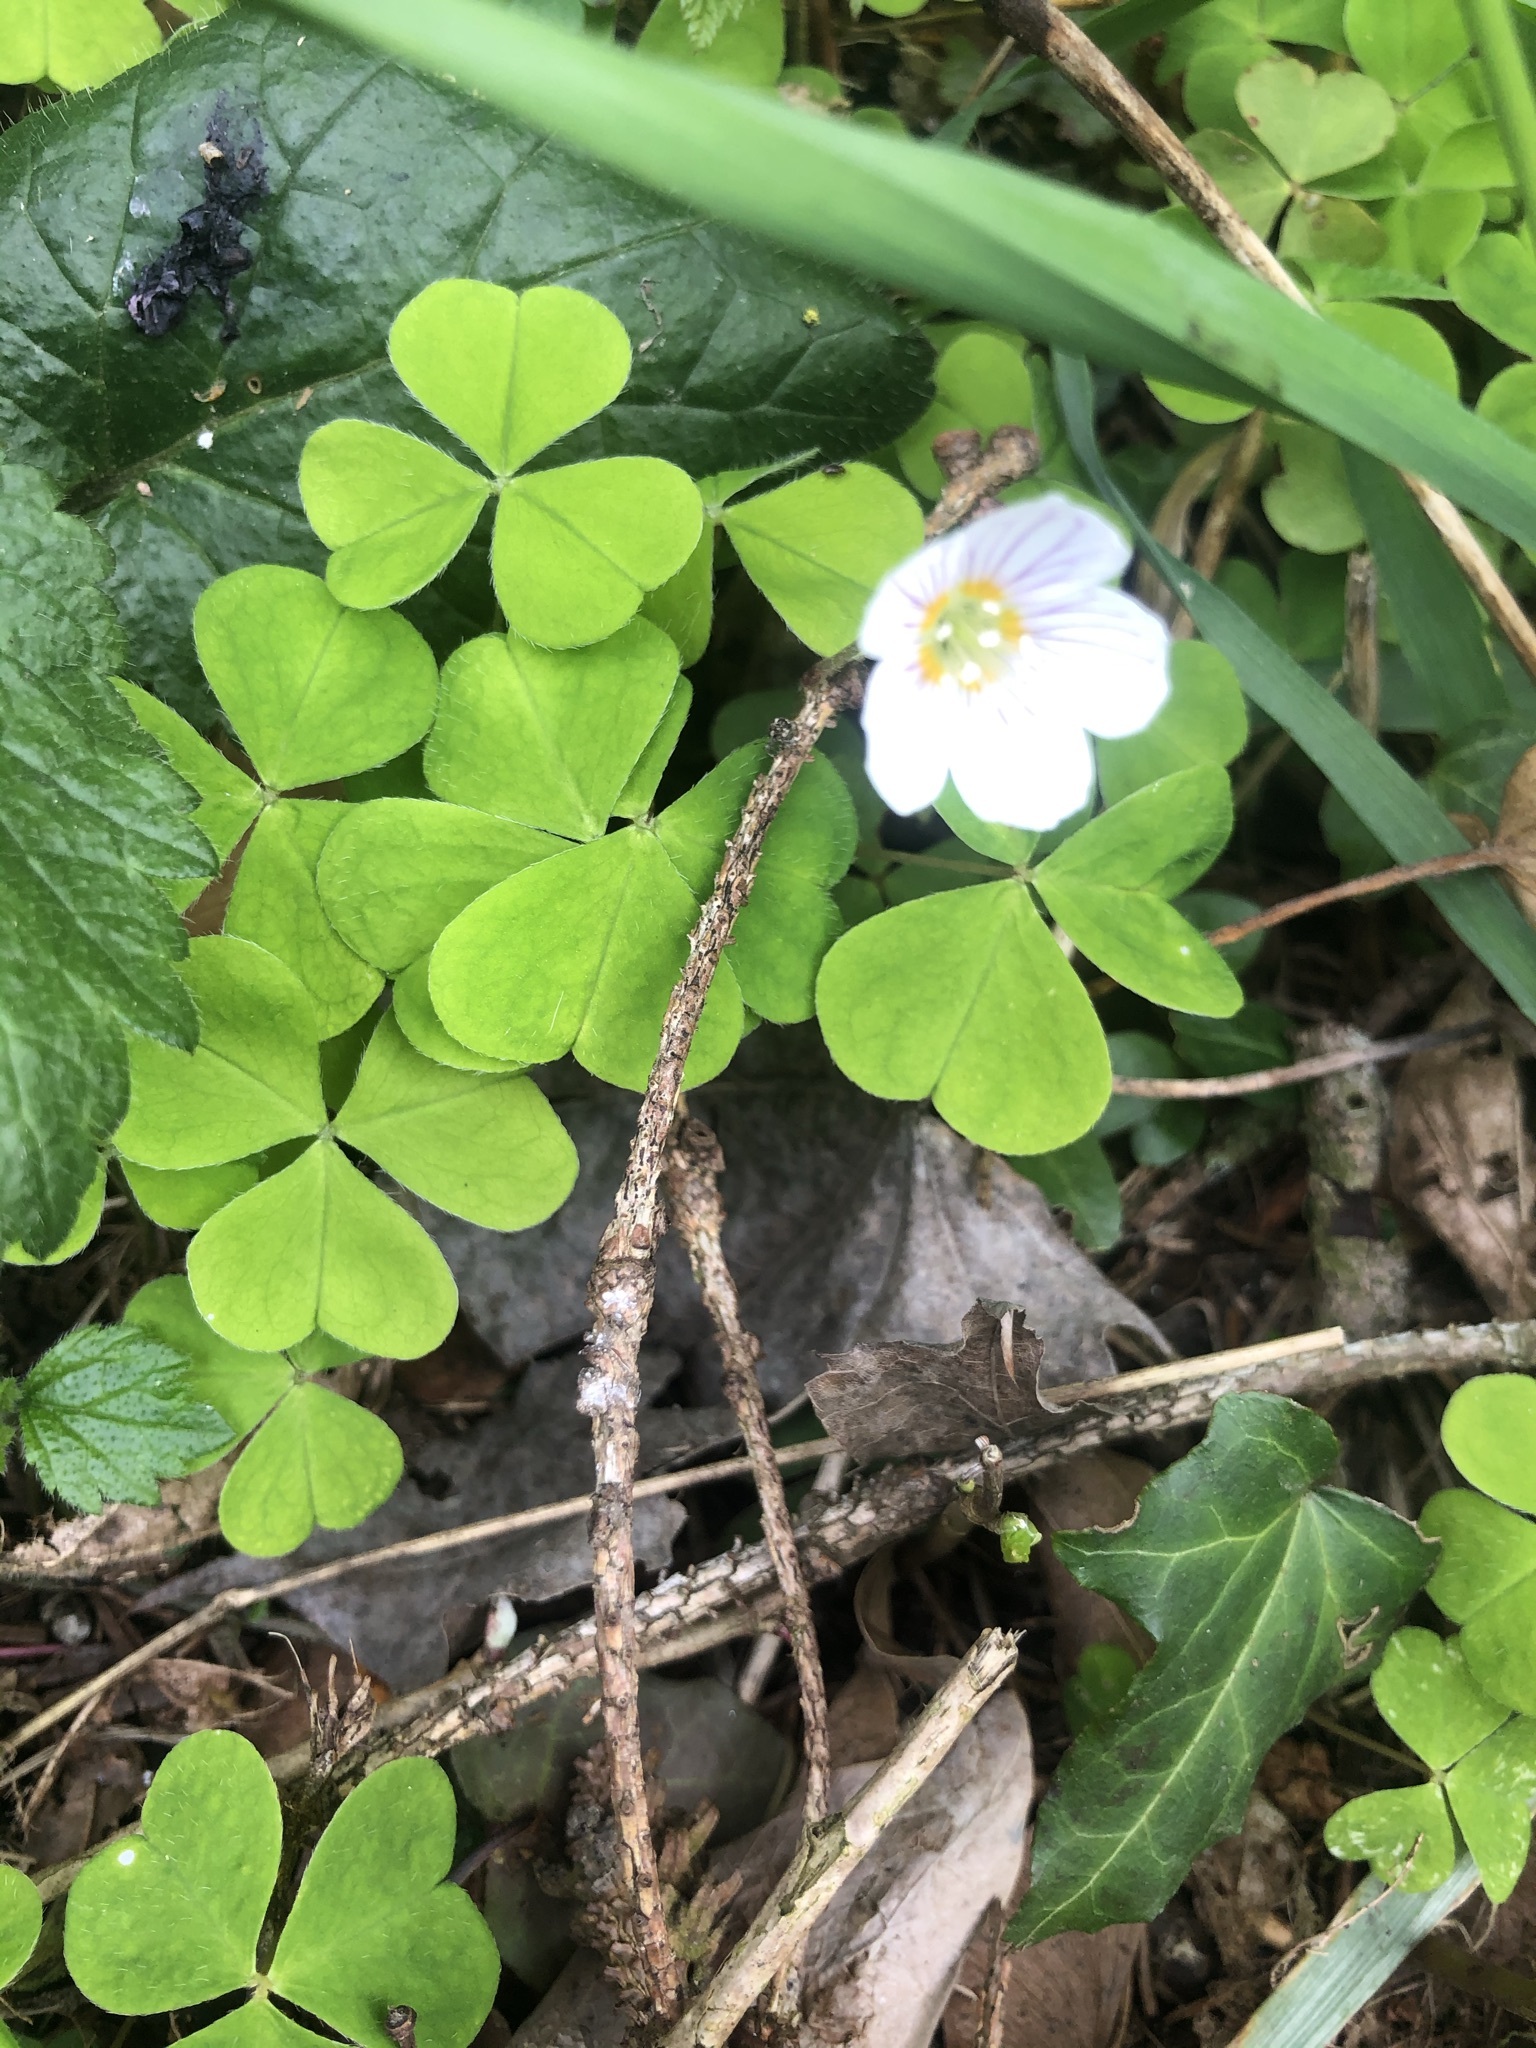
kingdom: Plantae
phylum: Tracheophyta
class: Magnoliopsida
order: Oxalidales
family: Oxalidaceae
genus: Oxalis
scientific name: Oxalis acetosella
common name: Wood-sorrel
